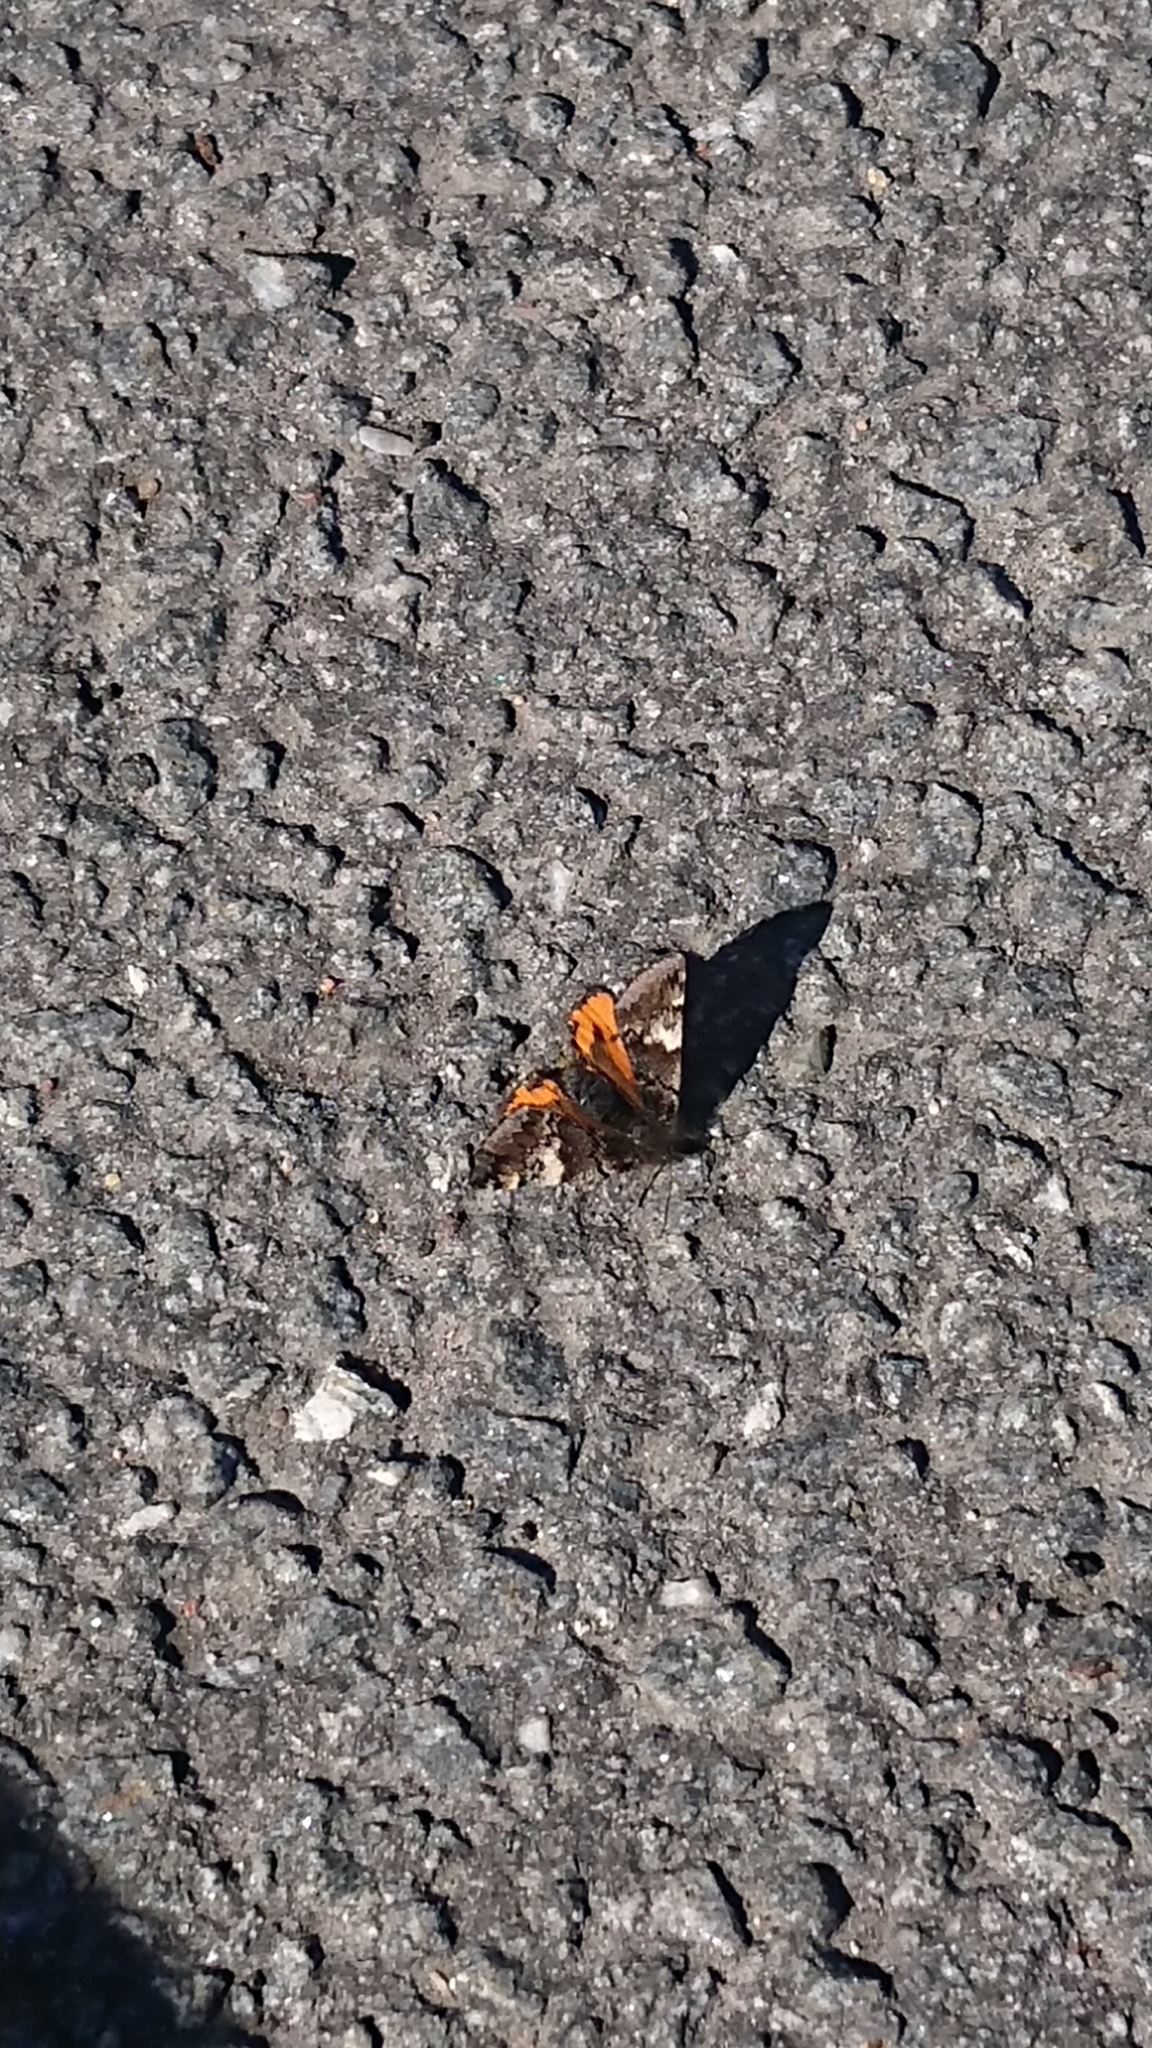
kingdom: Animalia
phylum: Arthropoda
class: Insecta
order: Lepidoptera
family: Geometridae
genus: Archiearis
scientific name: Archiearis parthenias
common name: Orange underwing
